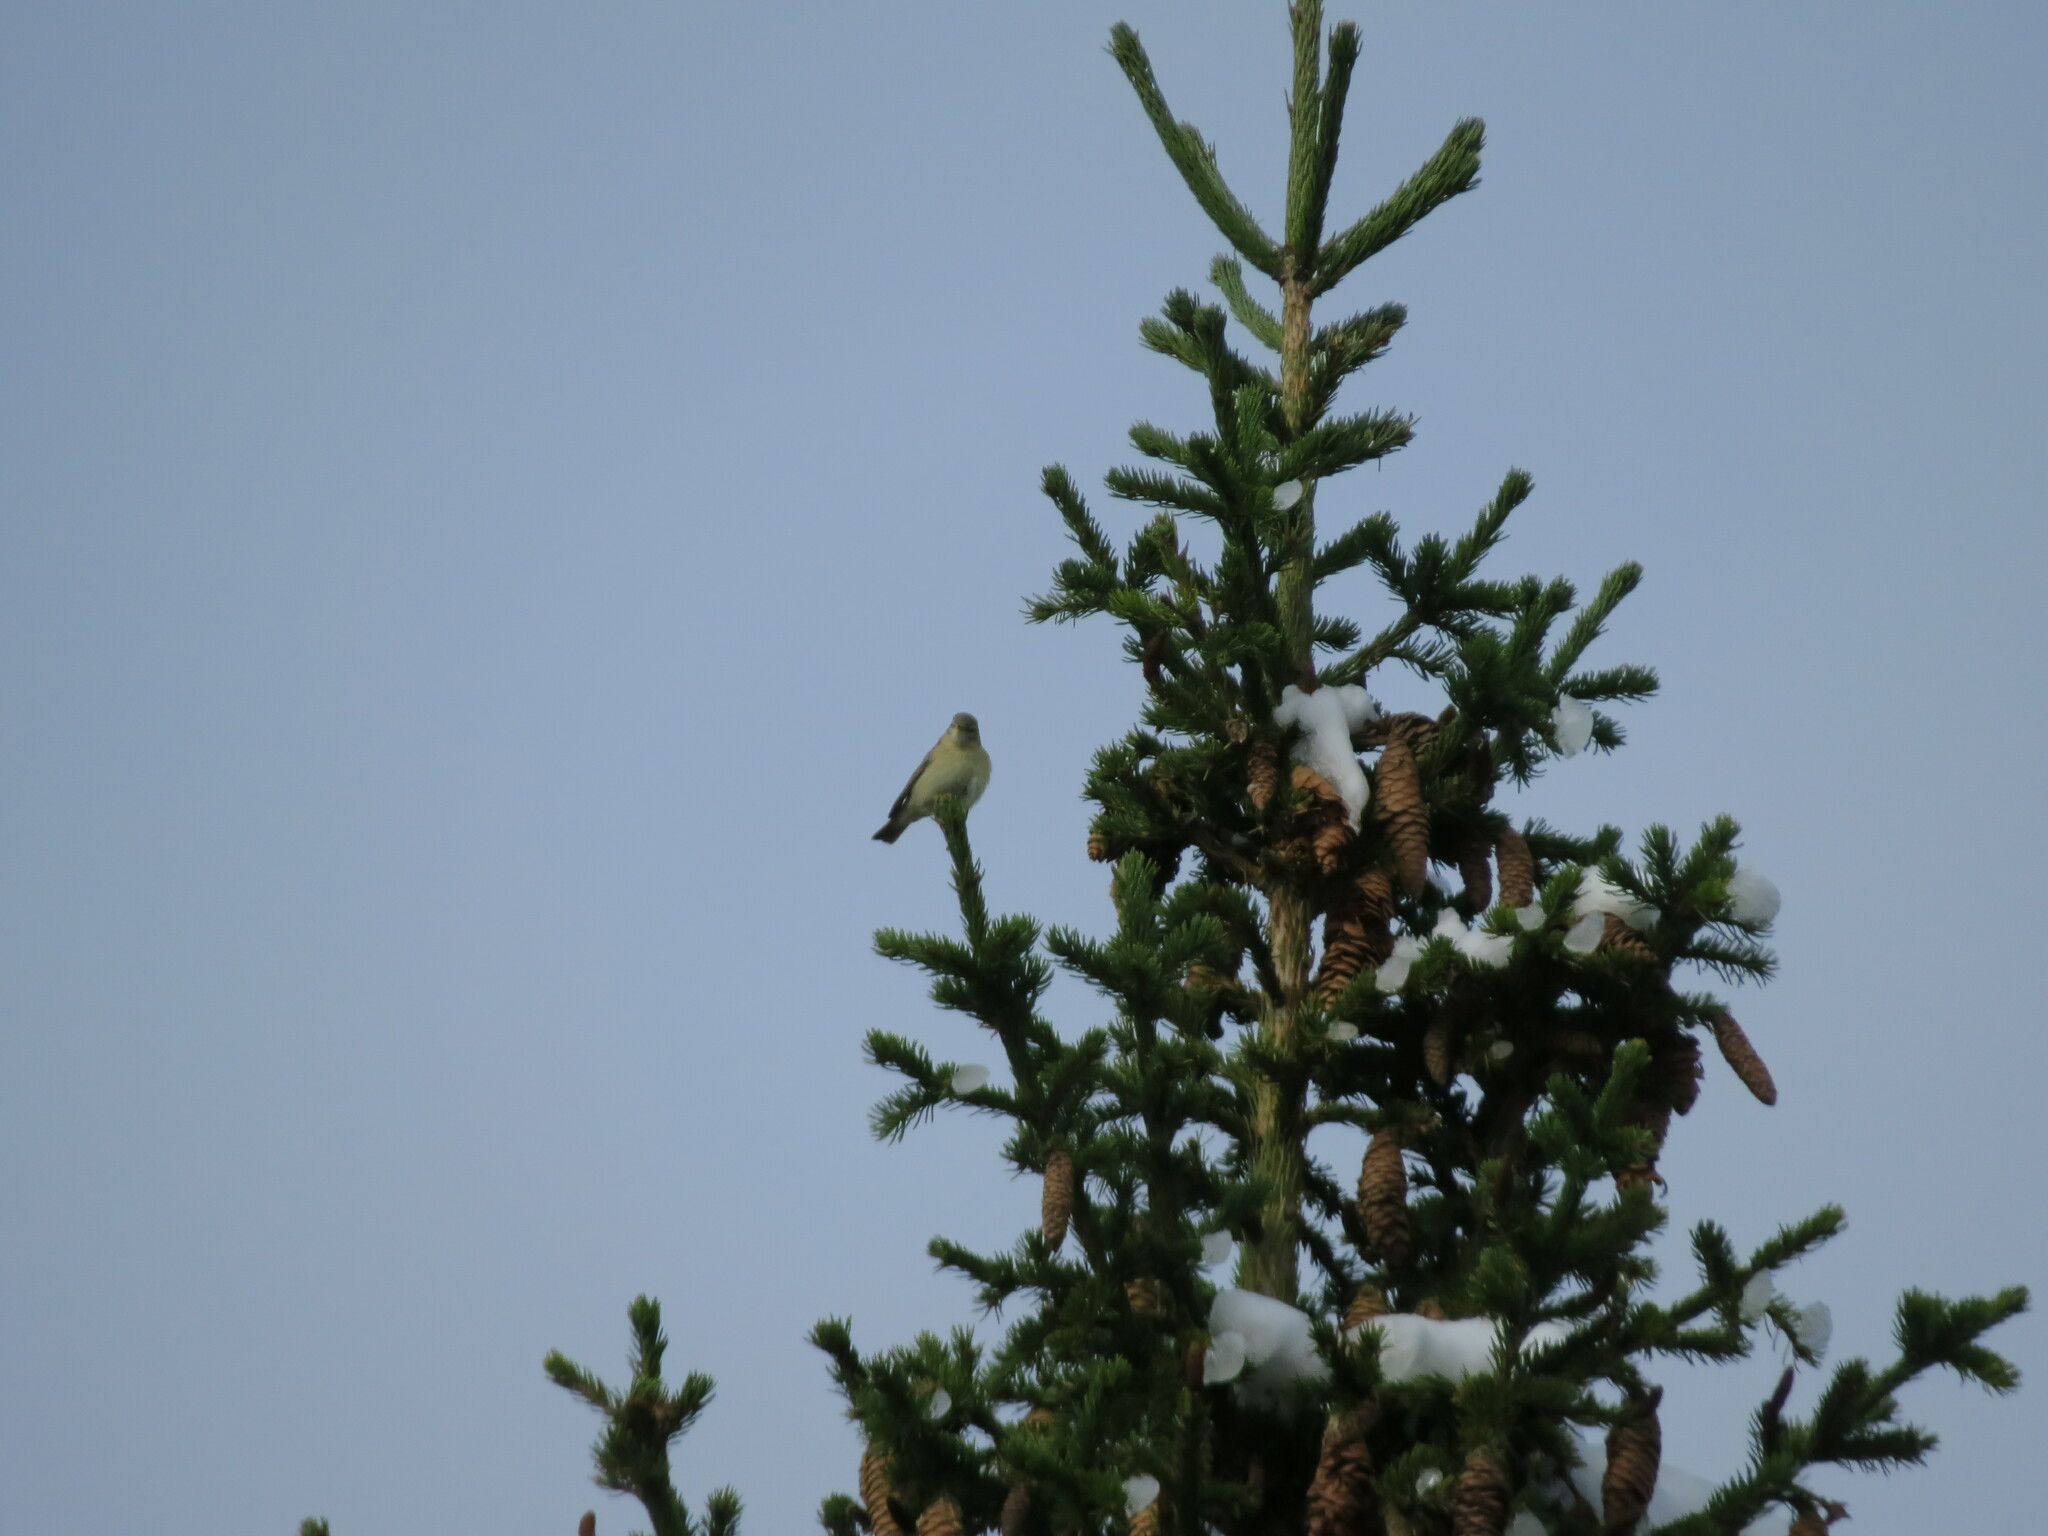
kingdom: Animalia
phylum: Chordata
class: Aves
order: Passeriformes
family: Phylloscopidae
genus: Phylloscopus
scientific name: Phylloscopus trochilus
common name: Willow warbler
